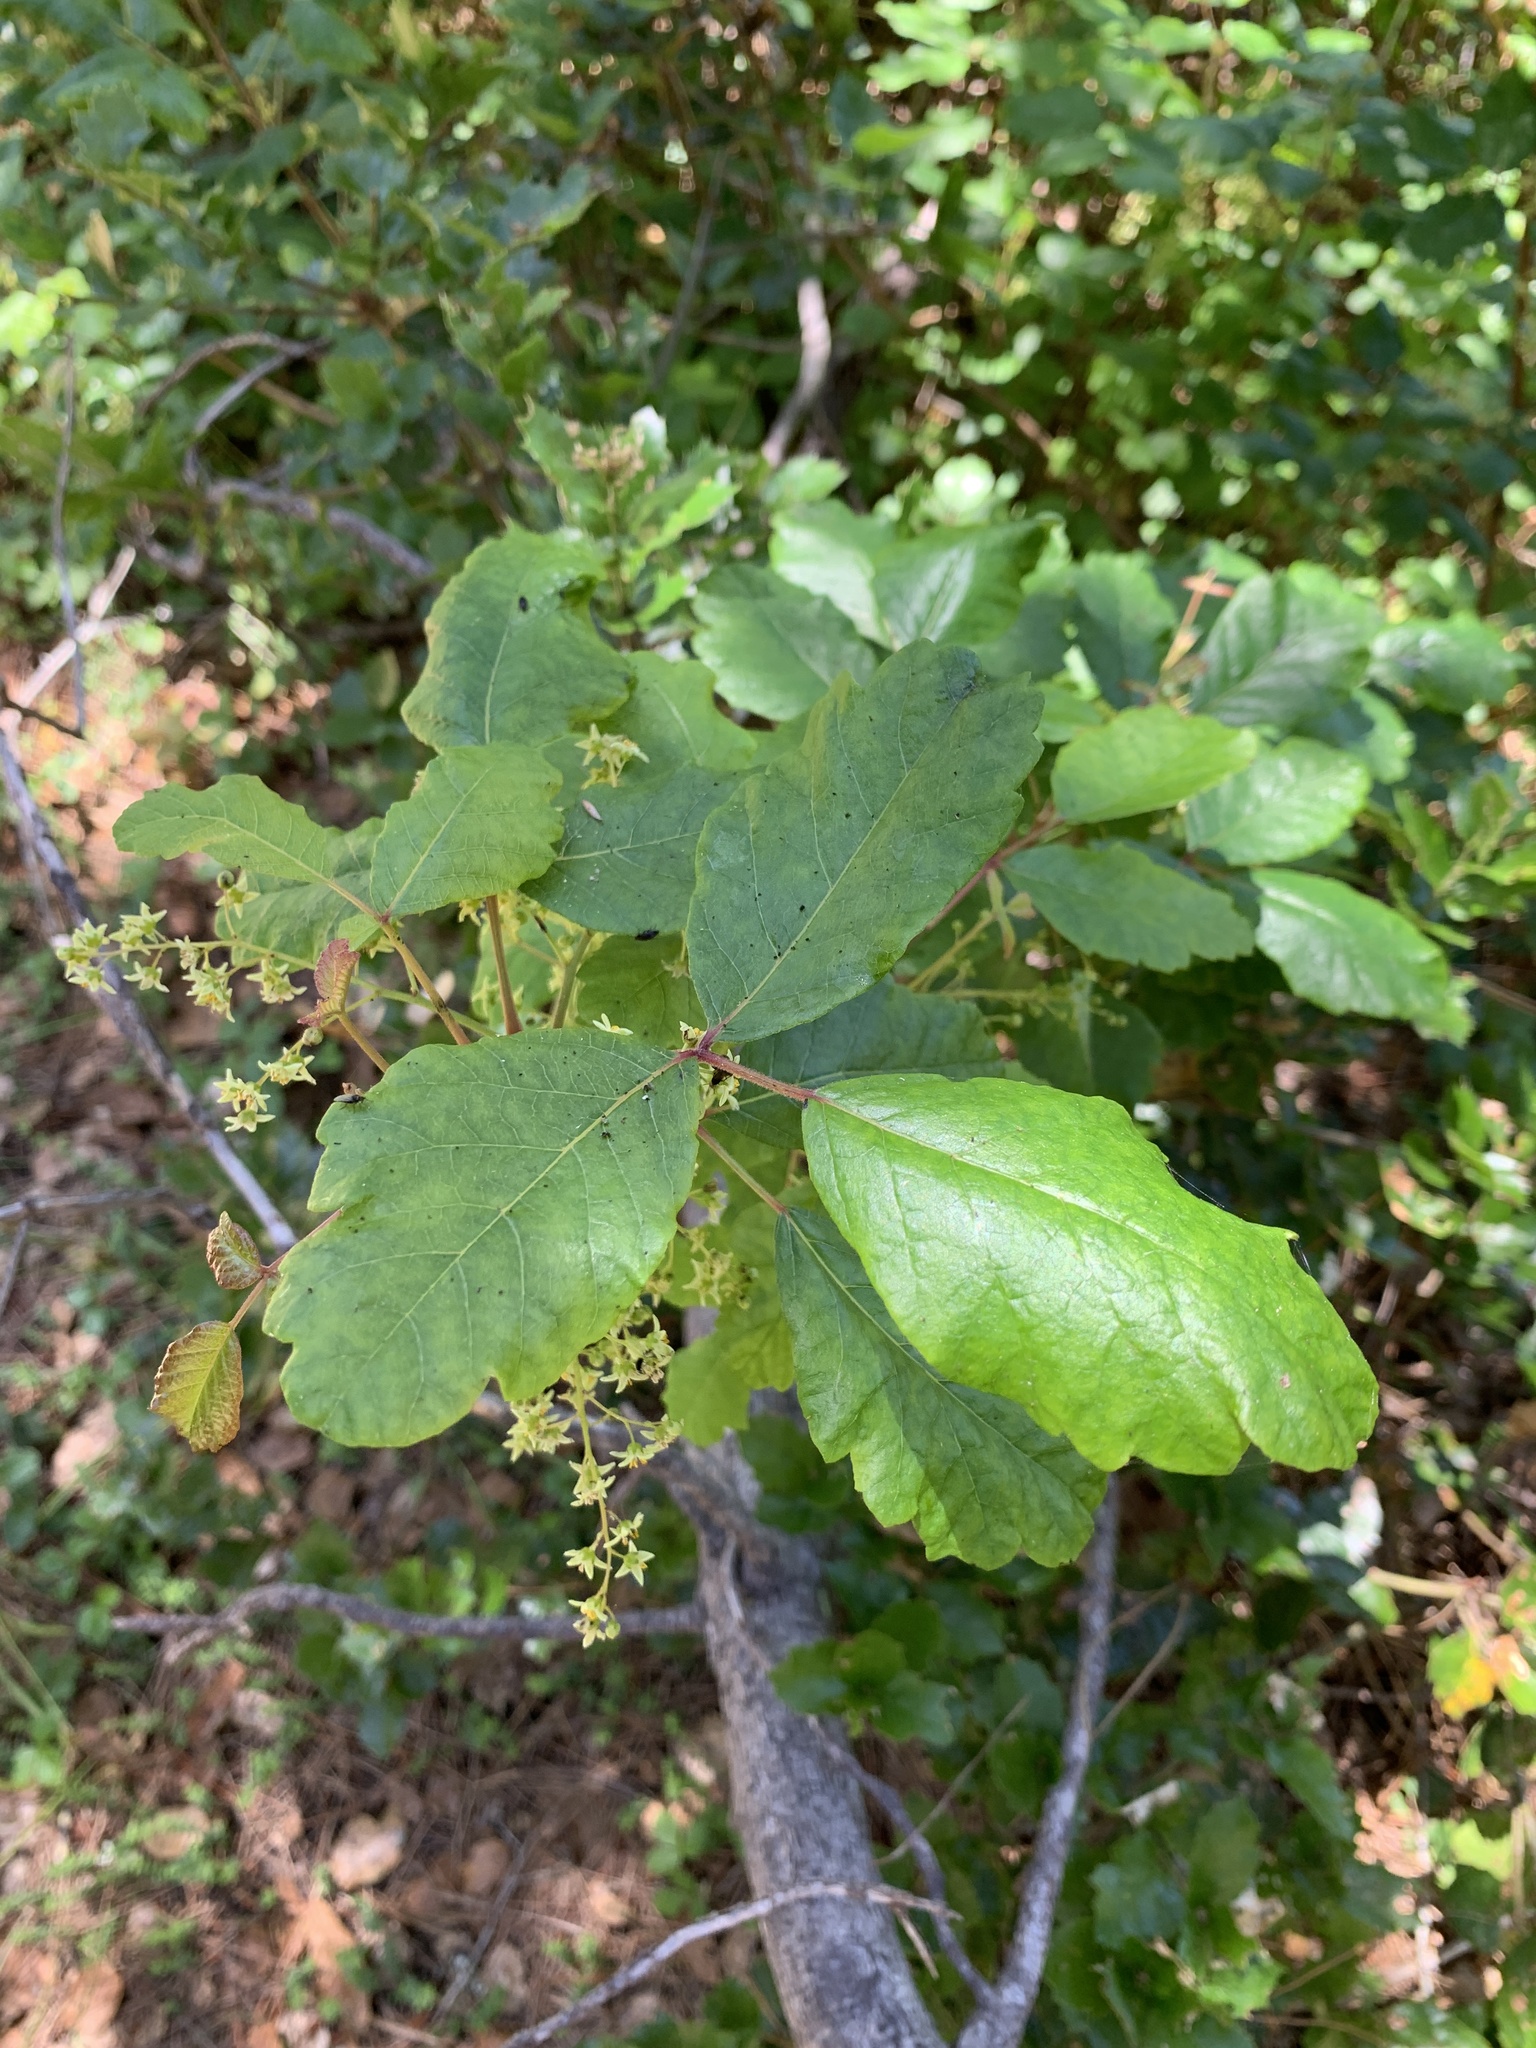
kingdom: Plantae
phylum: Tracheophyta
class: Magnoliopsida
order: Sapindales
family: Anacardiaceae
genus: Toxicodendron
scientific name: Toxicodendron diversilobum
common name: Pacific poison-oak
